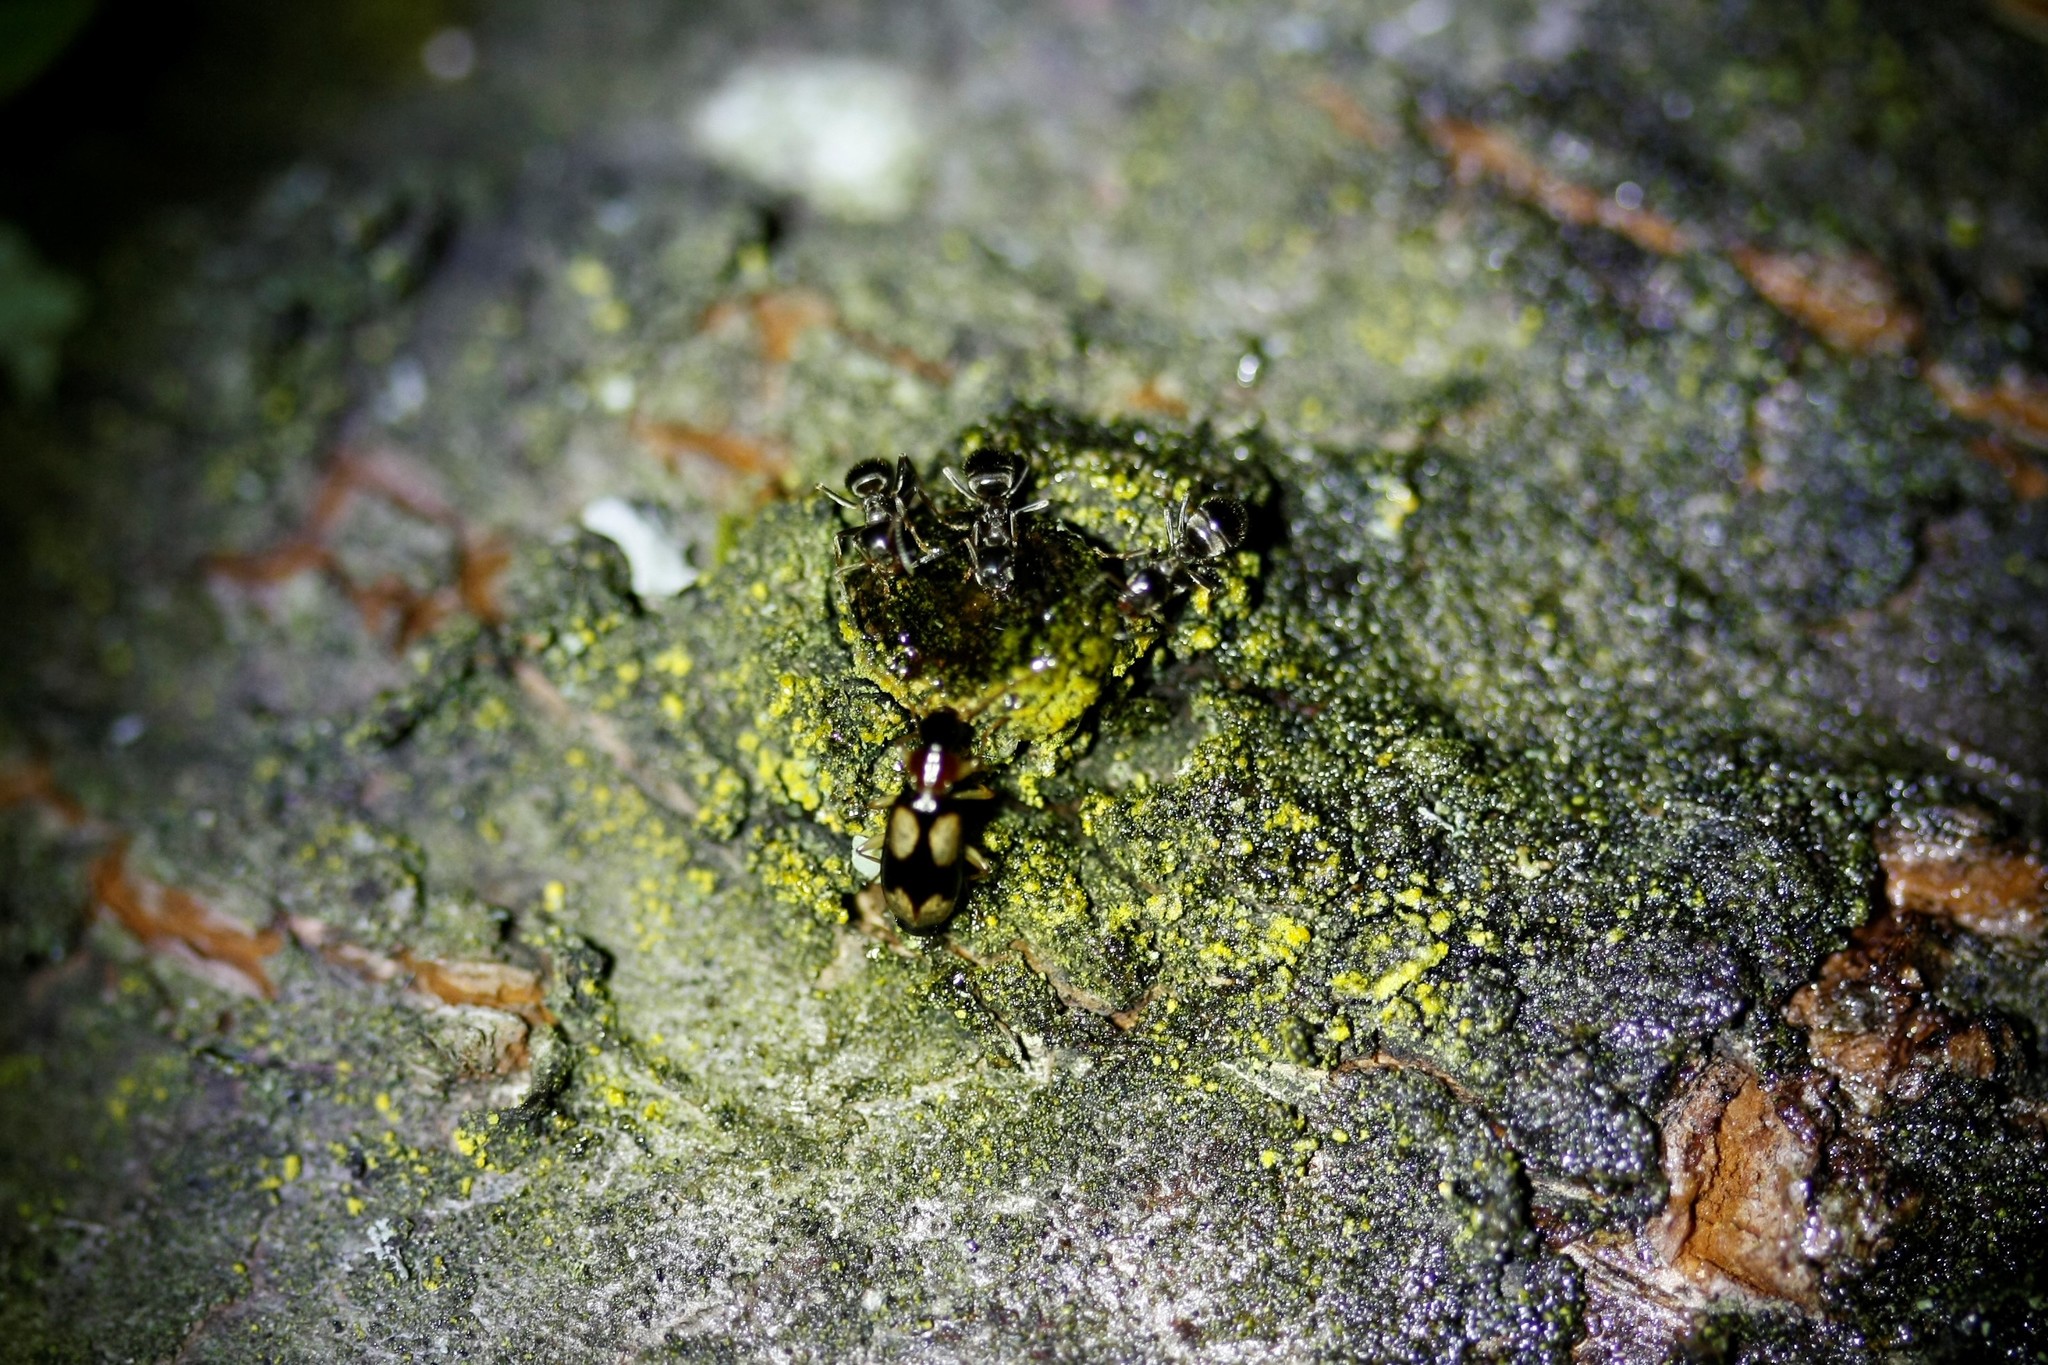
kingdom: Animalia
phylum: Arthropoda
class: Insecta
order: Coleoptera
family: Carabidae
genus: Dromius
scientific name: Dromius quadrimaculatus
